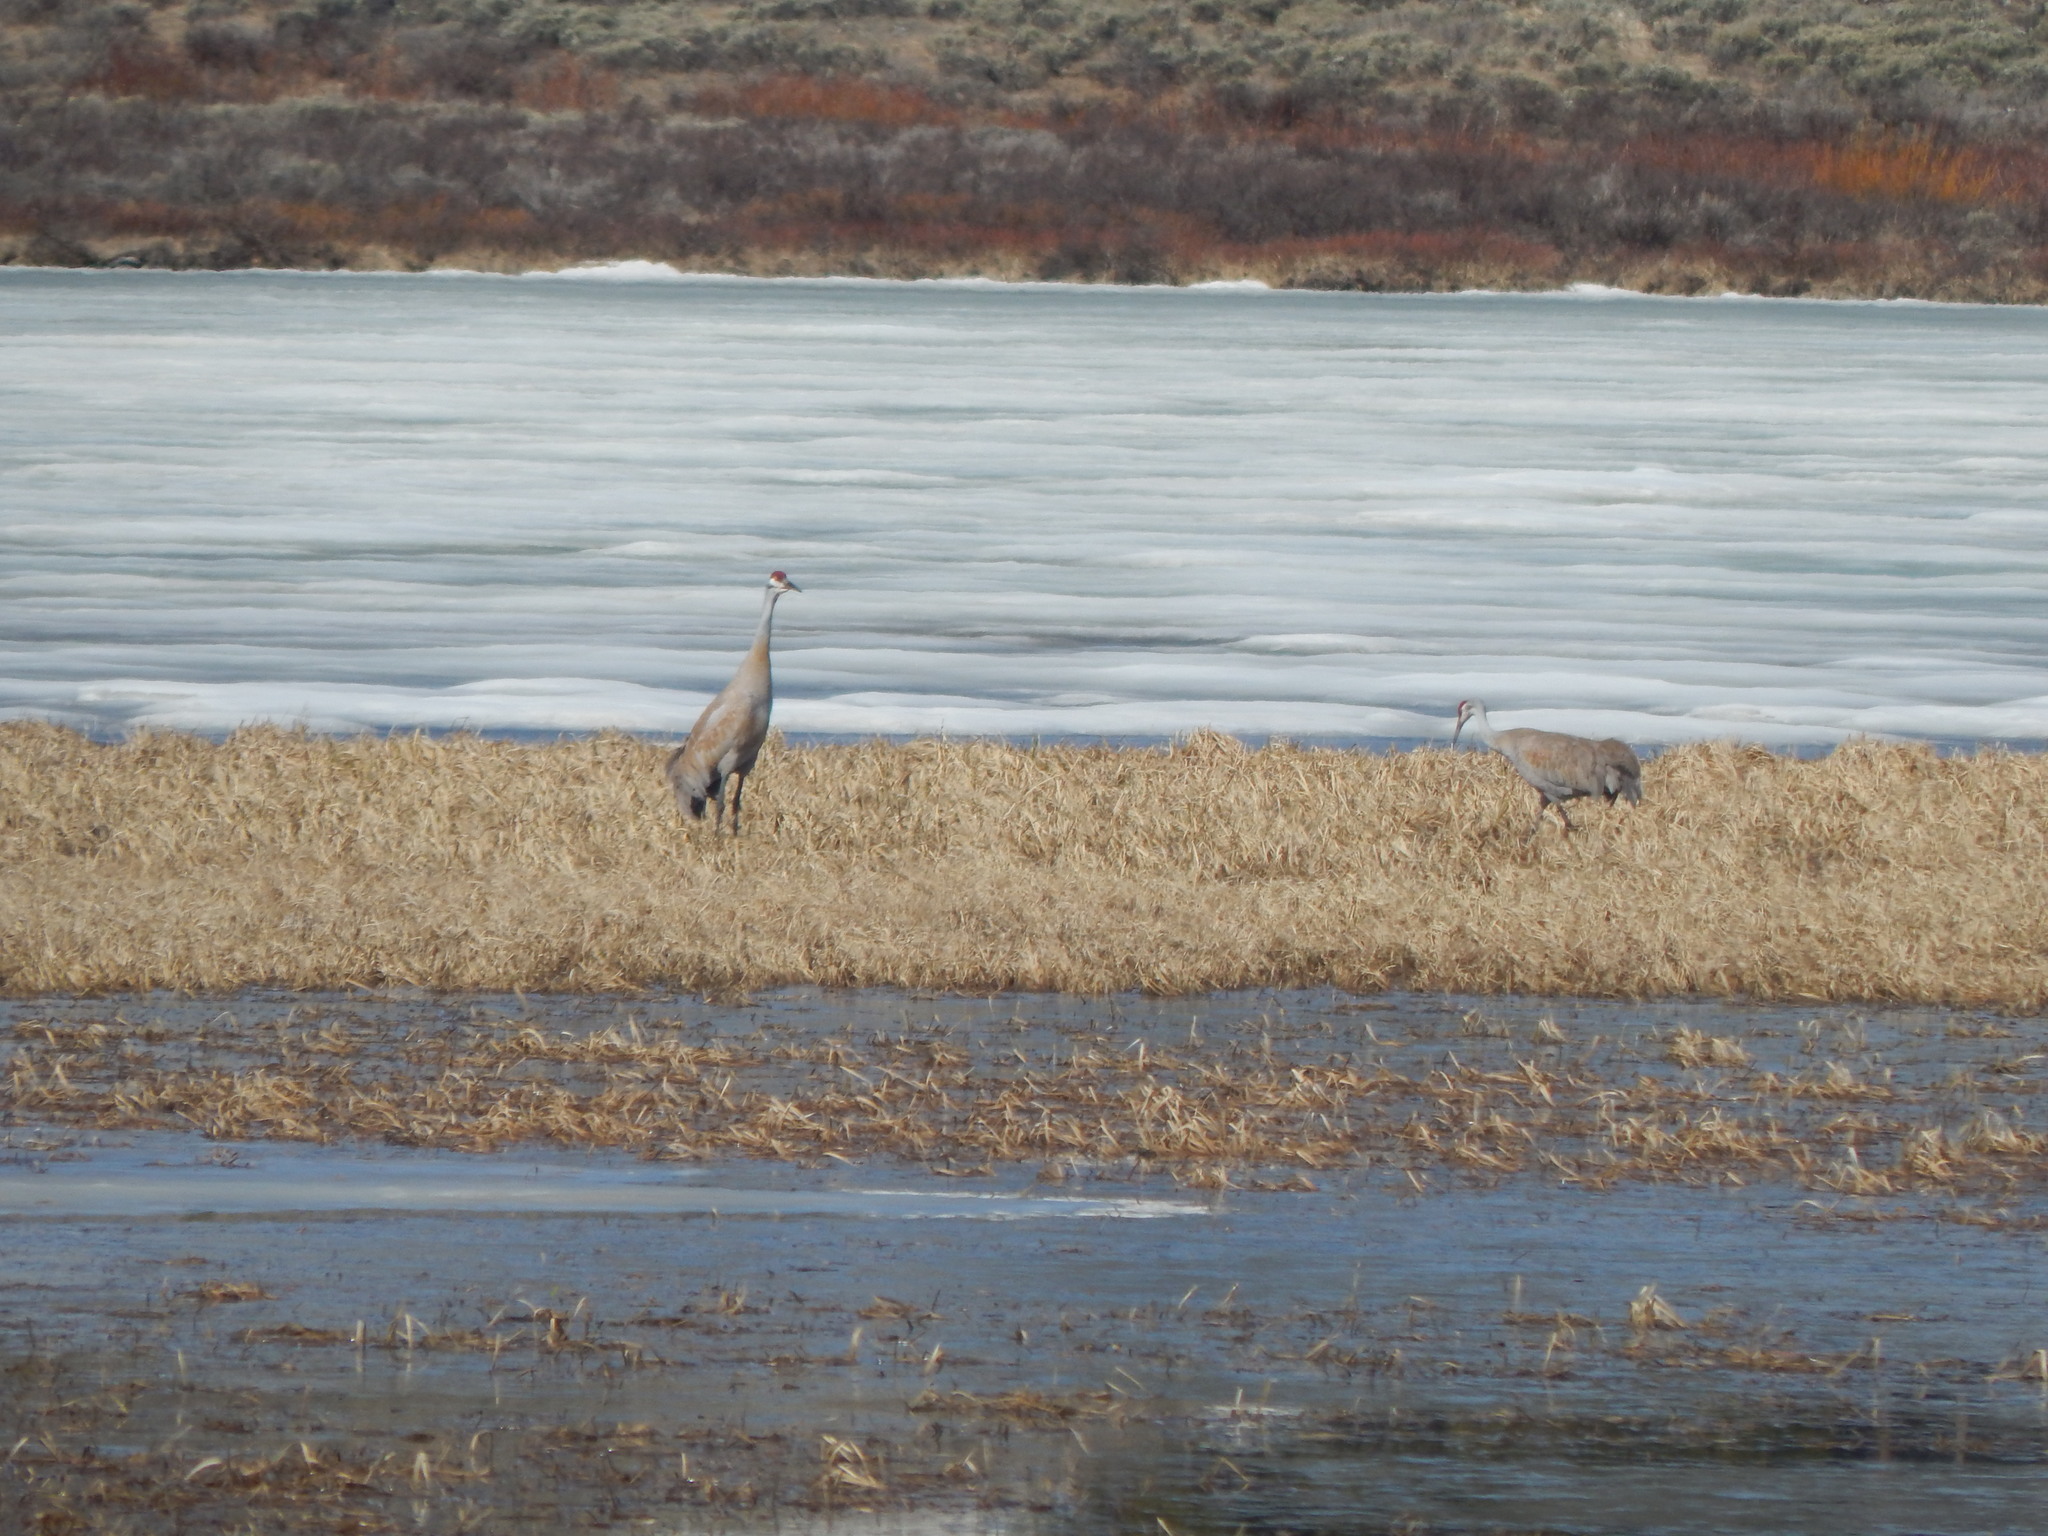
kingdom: Animalia
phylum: Chordata
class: Aves
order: Gruiformes
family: Gruidae
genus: Grus
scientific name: Grus canadensis
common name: Sandhill crane
